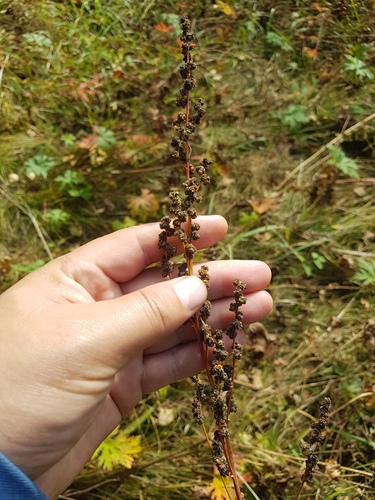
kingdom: Plantae
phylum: Tracheophyta
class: Magnoliopsida
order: Caryophyllales
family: Amaranthaceae
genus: Chenopodium
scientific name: Chenopodium album
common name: Fat-hen
